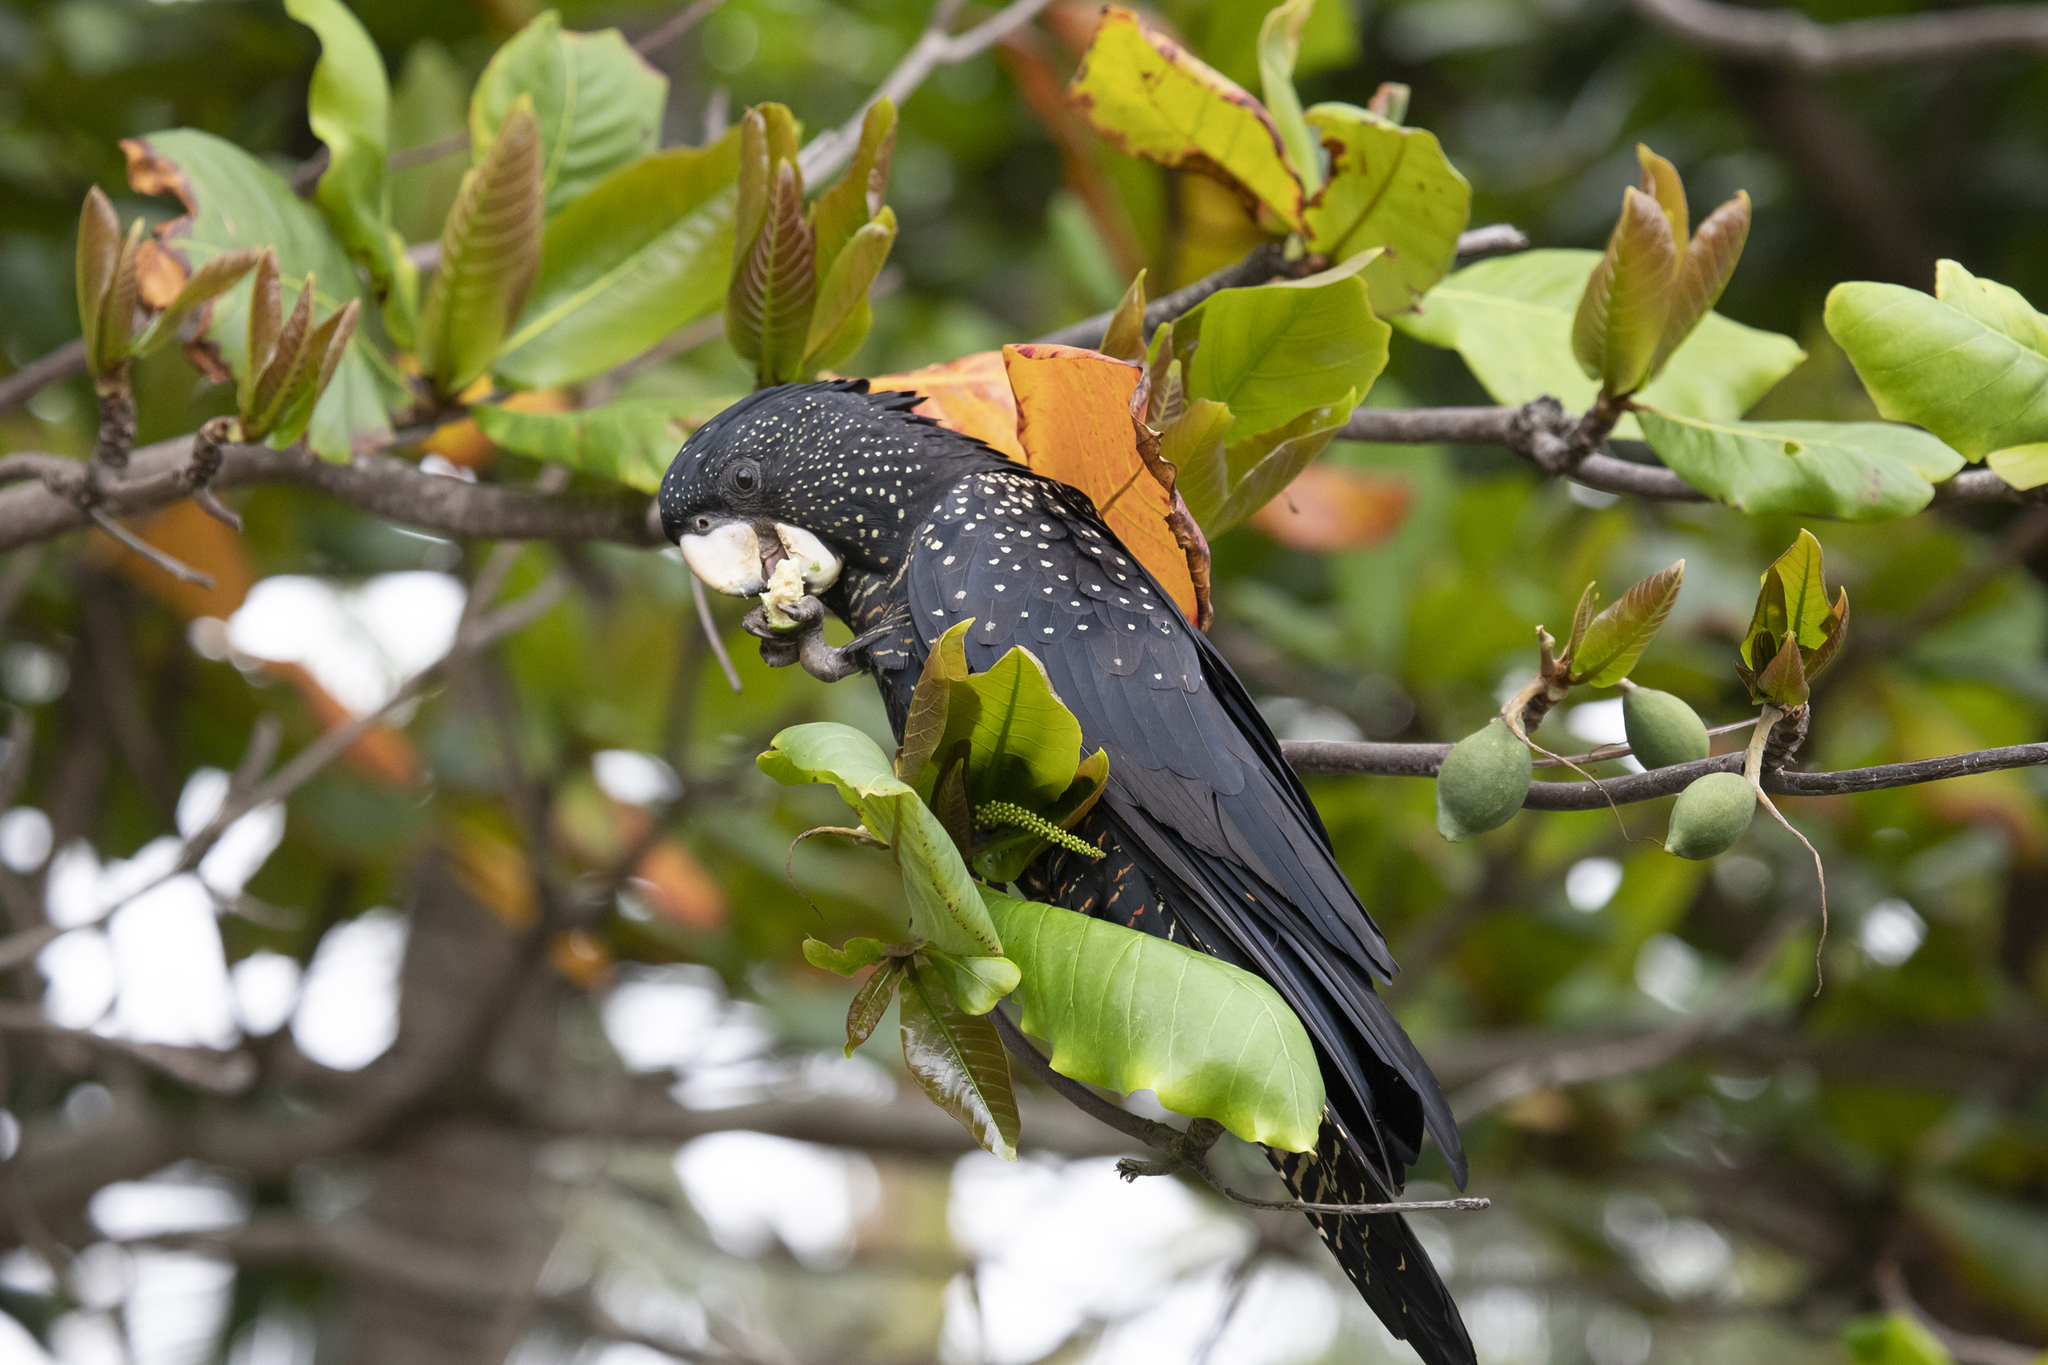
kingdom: Animalia
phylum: Chordata
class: Aves
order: Psittaciformes
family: Psittacidae
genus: Calyptorhynchus
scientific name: Calyptorhynchus banksii
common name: Red-tailed black cockatoo
